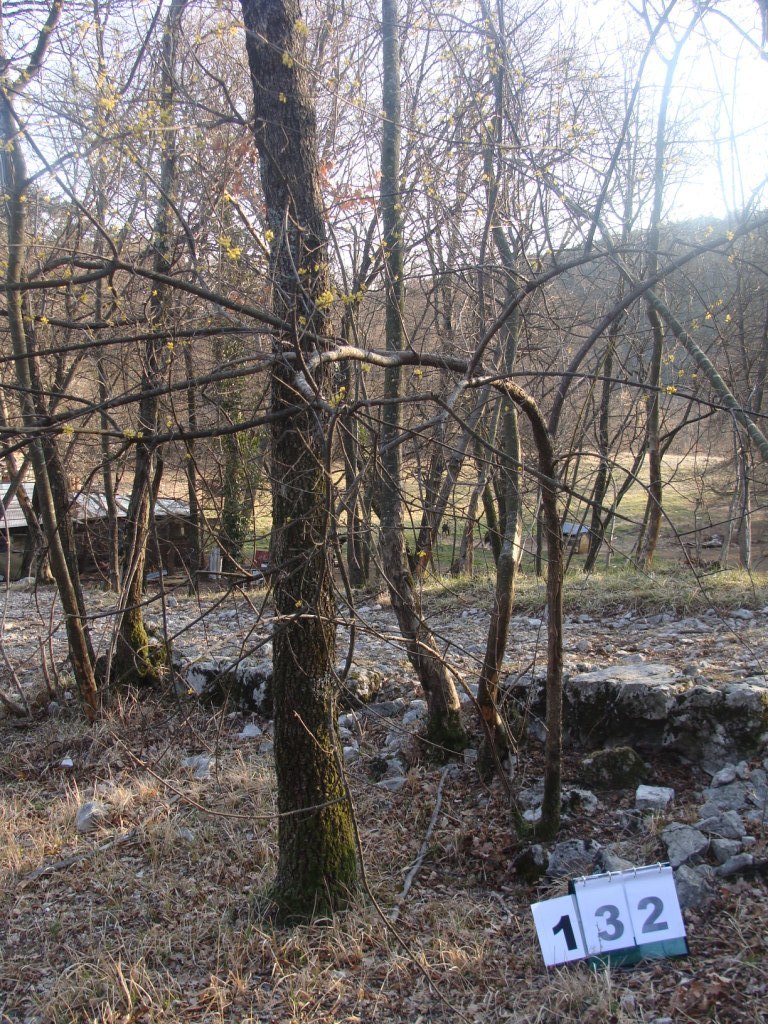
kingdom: Plantae
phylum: Tracheophyta
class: Magnoliopsida
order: Cornales
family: Cornaceae
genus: Cornus
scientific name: Cornus mas
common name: Cornelian-cherry
